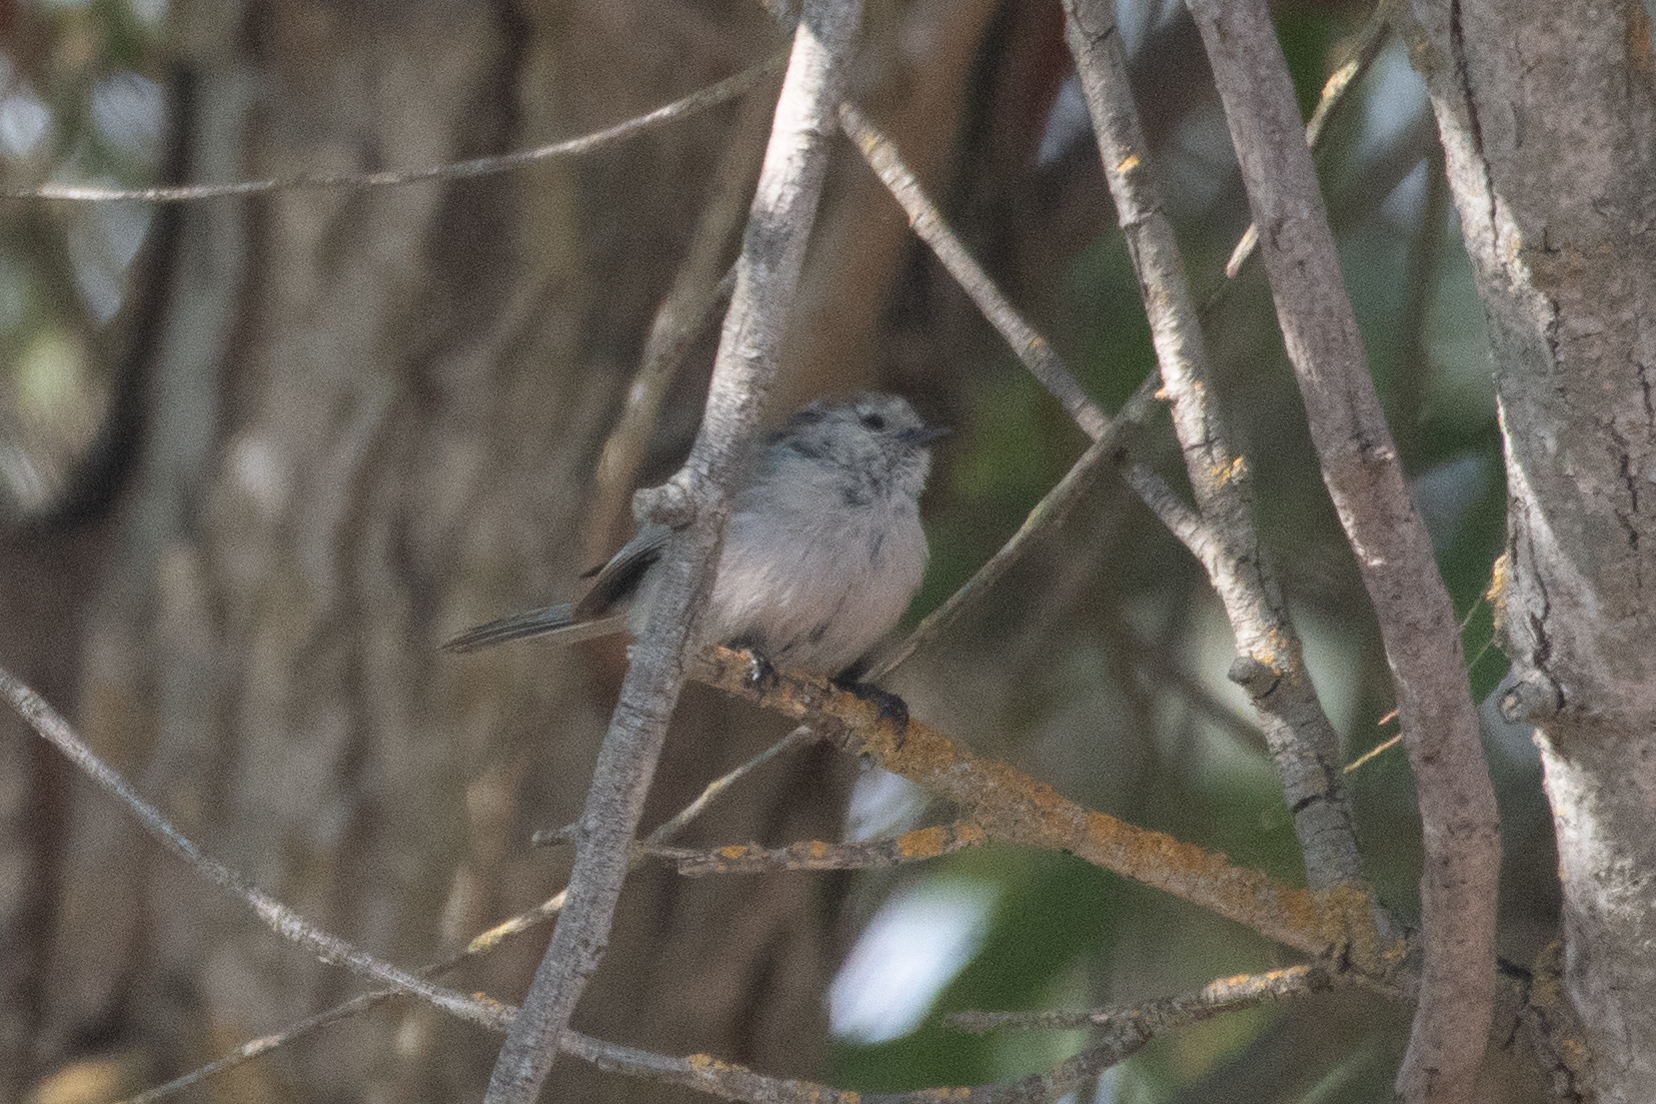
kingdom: Animalia
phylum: Chordata
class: Aves
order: Passeriformes
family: Aegithalidae
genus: Psaltriparus
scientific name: Psaltriparus minimus
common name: American bushtit
